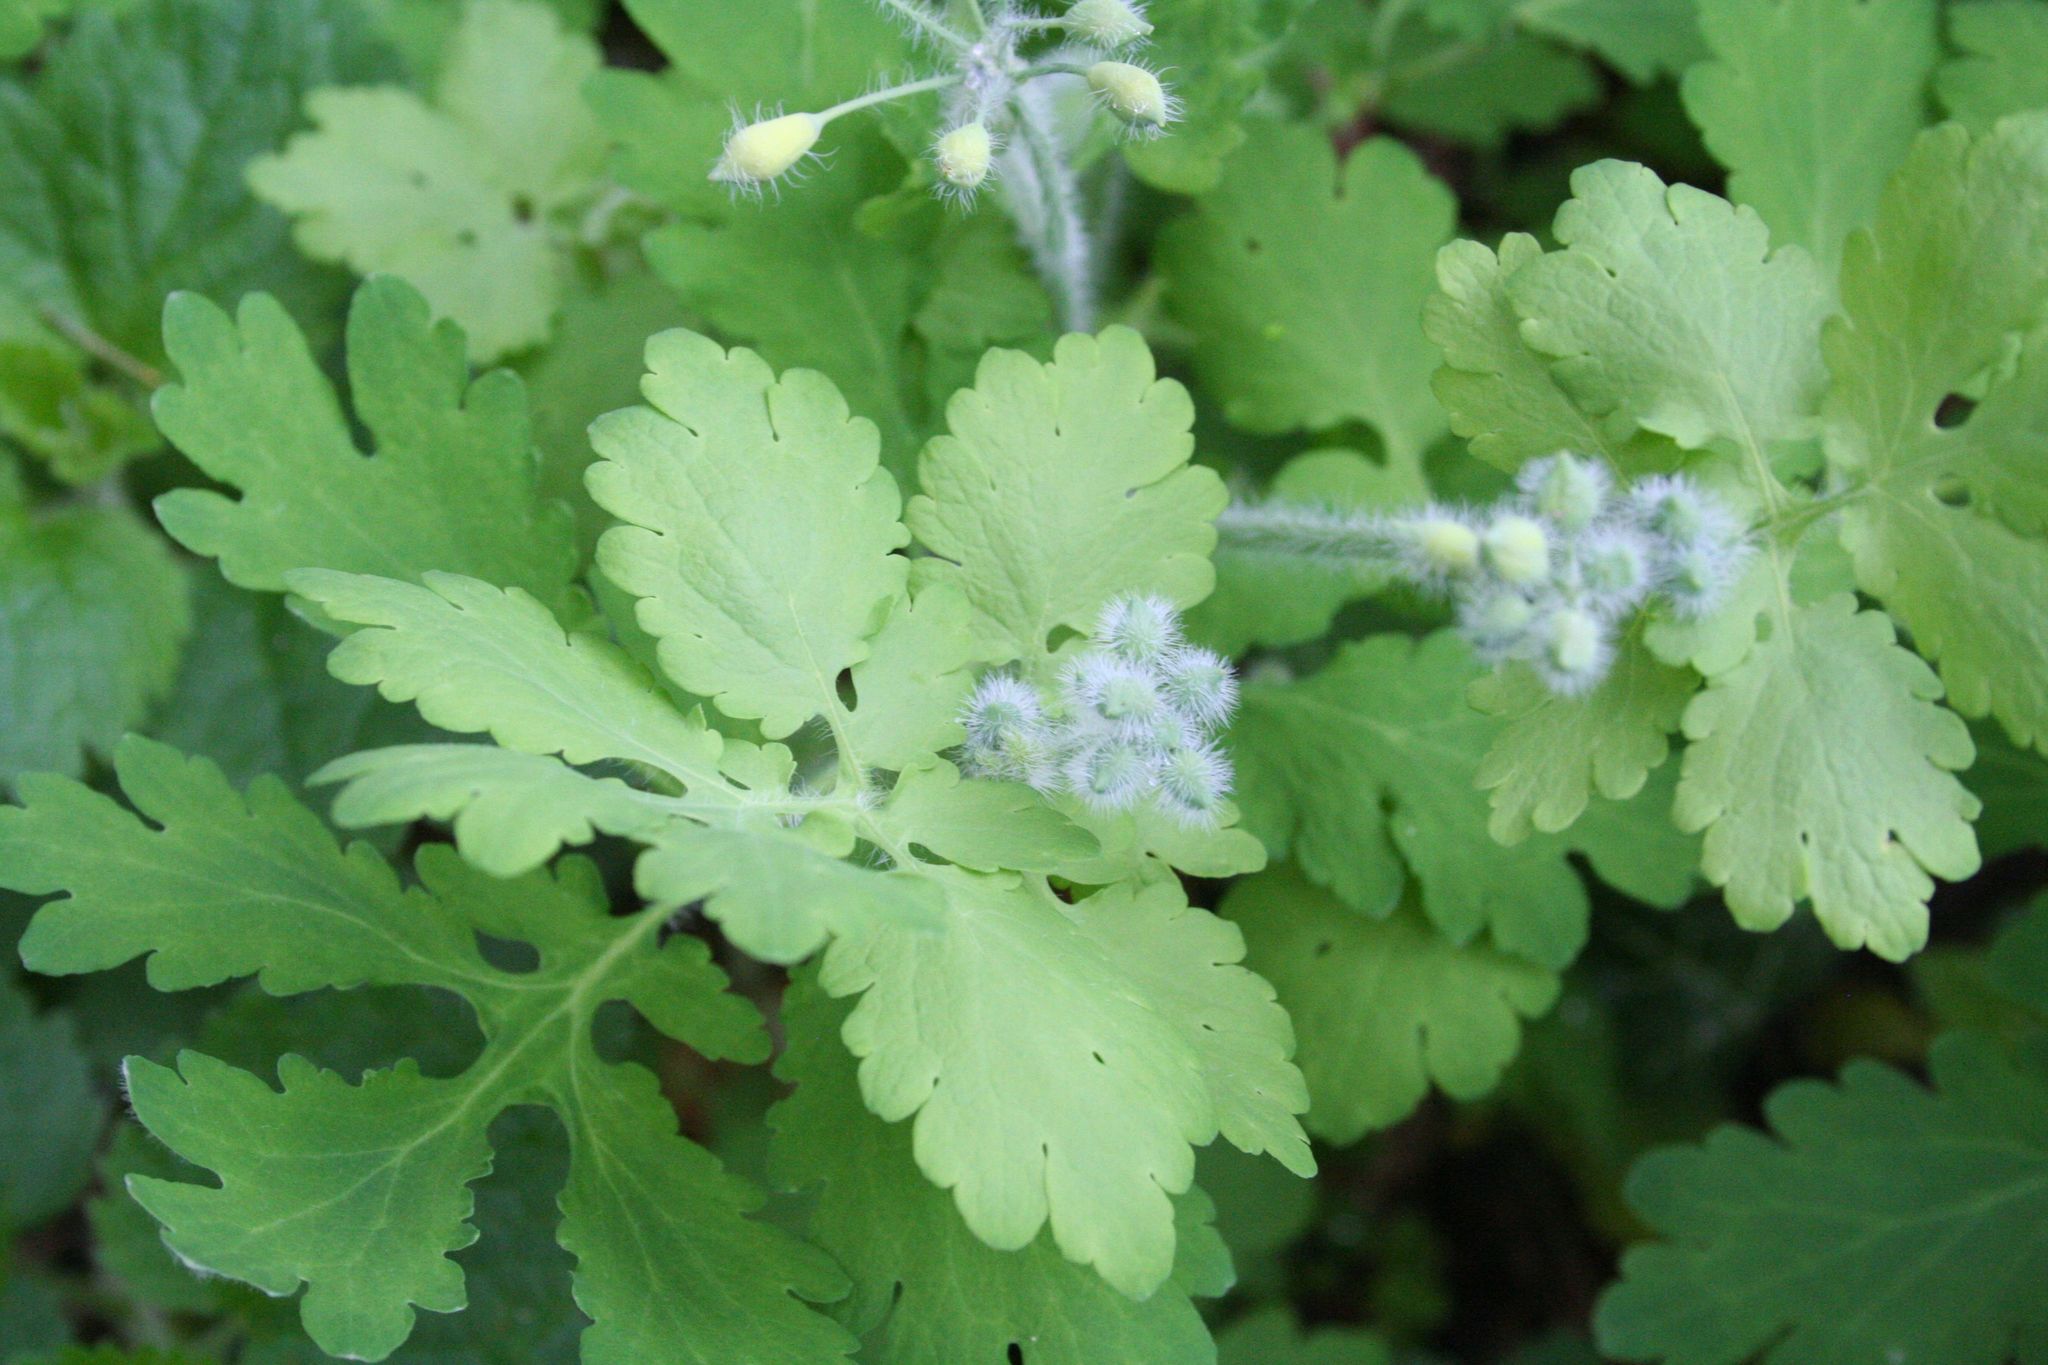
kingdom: Plantae
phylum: Tracheophyta
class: Magnoliopsida
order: Ranunculales
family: Papaveraceae
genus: Chelidonium
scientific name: Chelidonium majus
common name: Greater celandine
